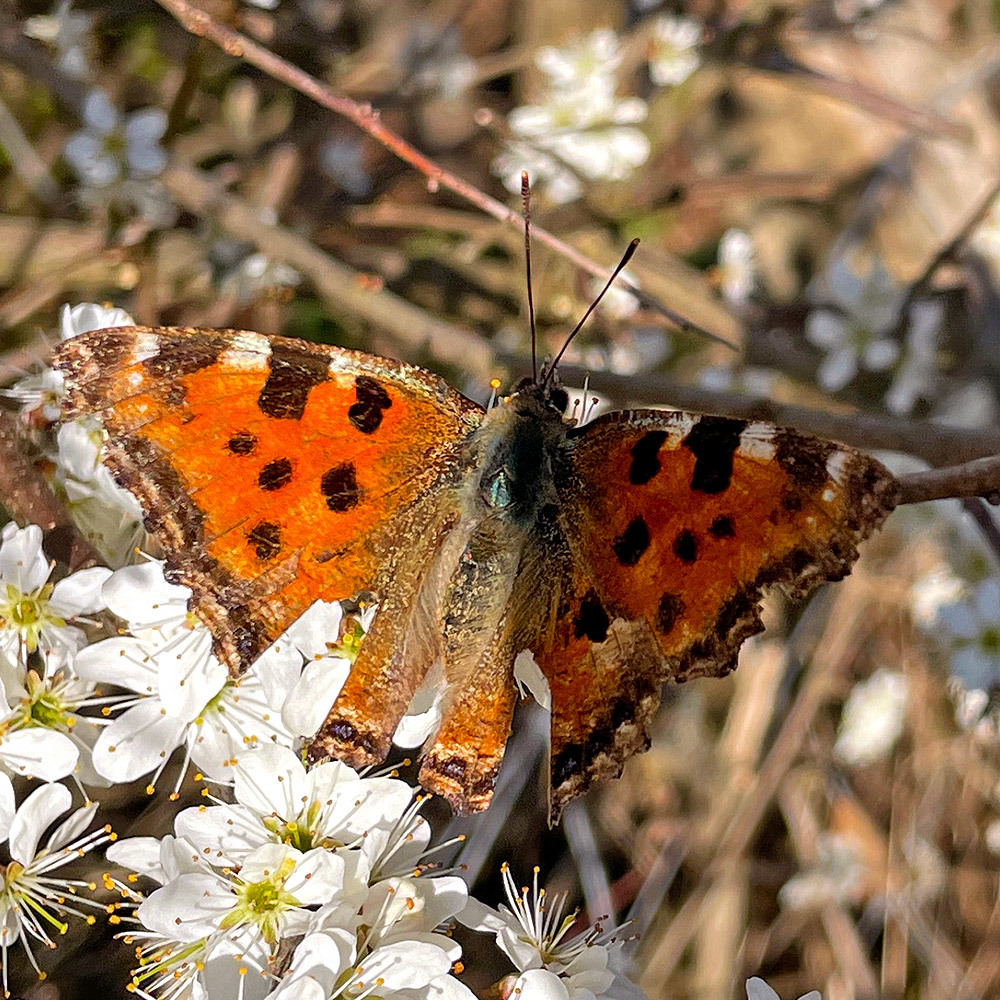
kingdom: Animalia
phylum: Arthropoda
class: Insecta
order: Lepidoptera
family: Nymphalidae
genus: Nymphalis
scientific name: Nymphalis polychloros
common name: Large tortoiseshell
